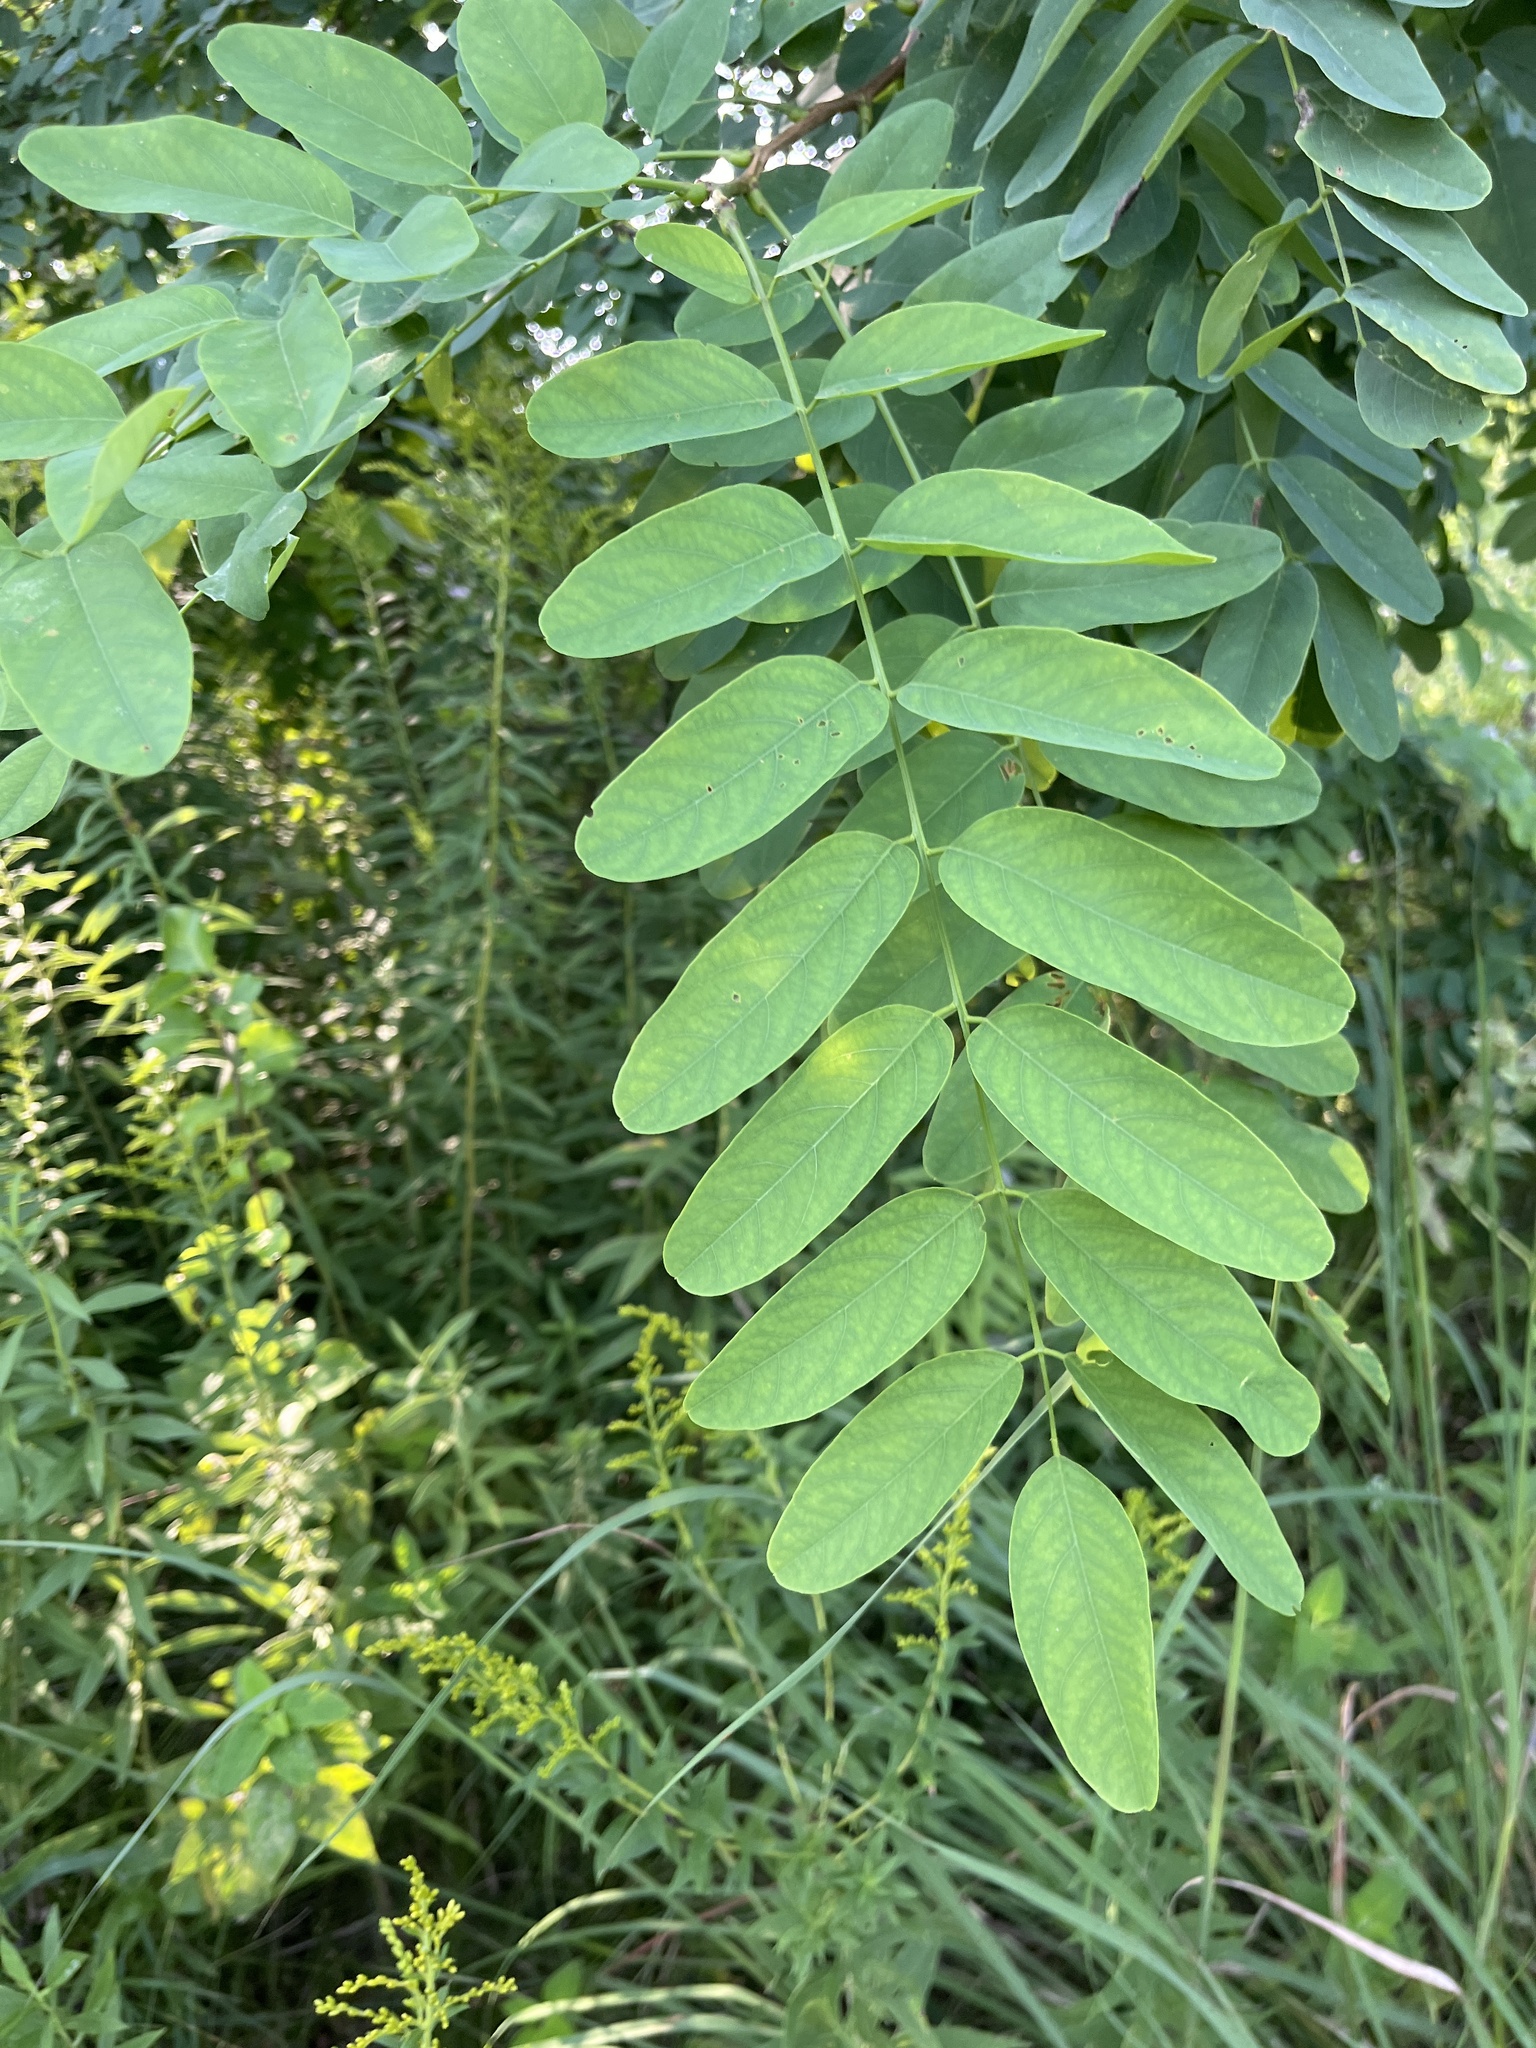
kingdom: Plantae
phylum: Tracheophyta
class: Magnoliopsida
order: Fabales
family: Fabaceae
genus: Robinia
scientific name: Robinia pseudoacacia
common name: Black locust
